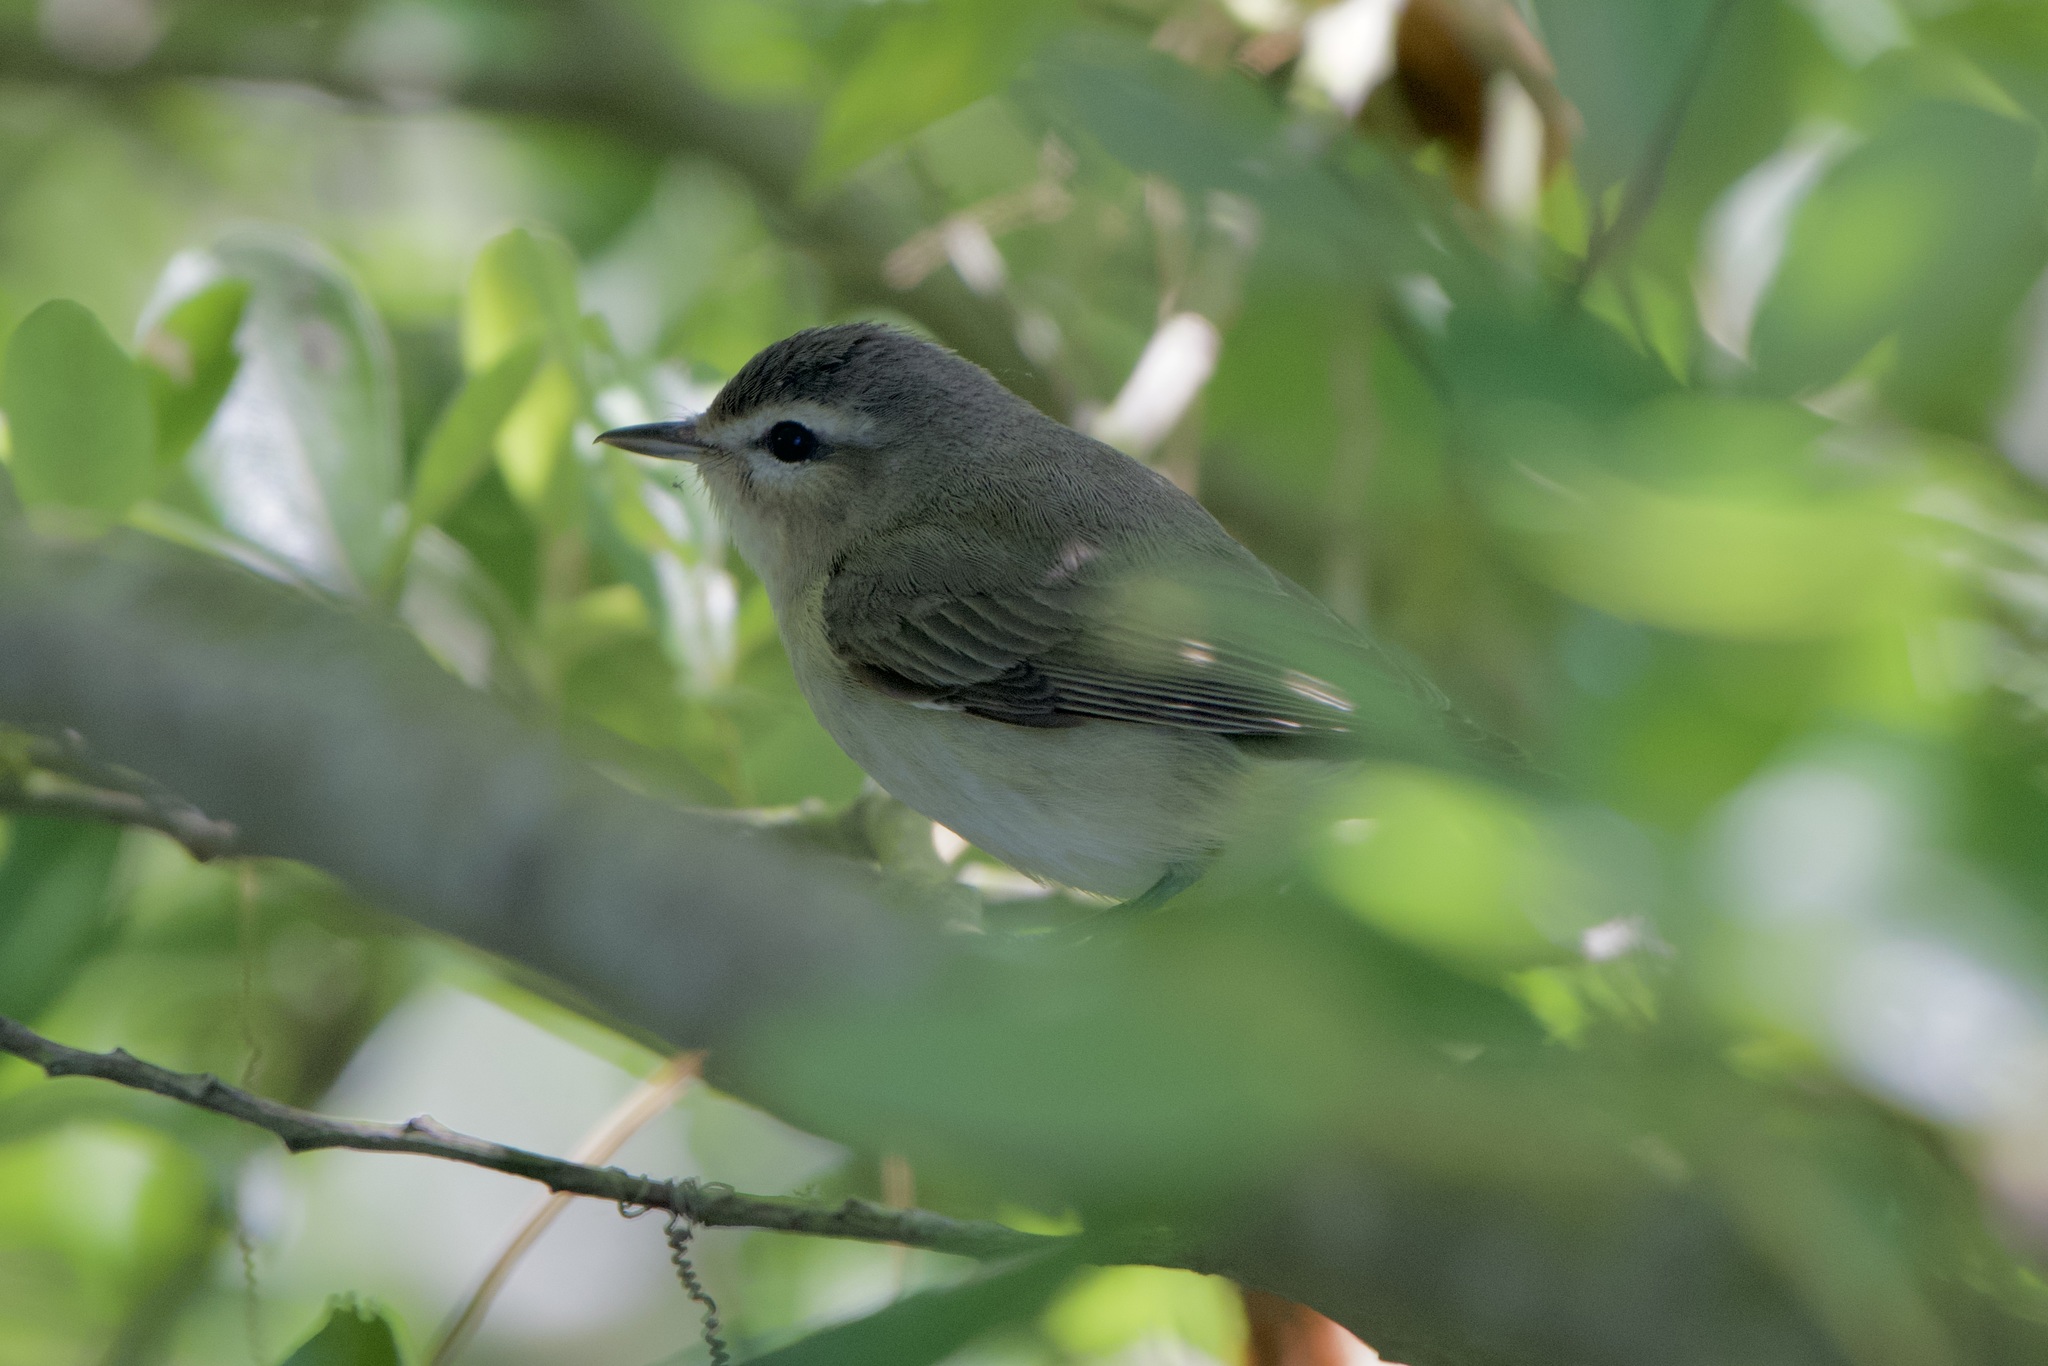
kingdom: Animalia
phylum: Chordata
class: Aves
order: Passeriformes
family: Vireonidae
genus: Vireo
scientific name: Vireo gilvus
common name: Warbling vireo
